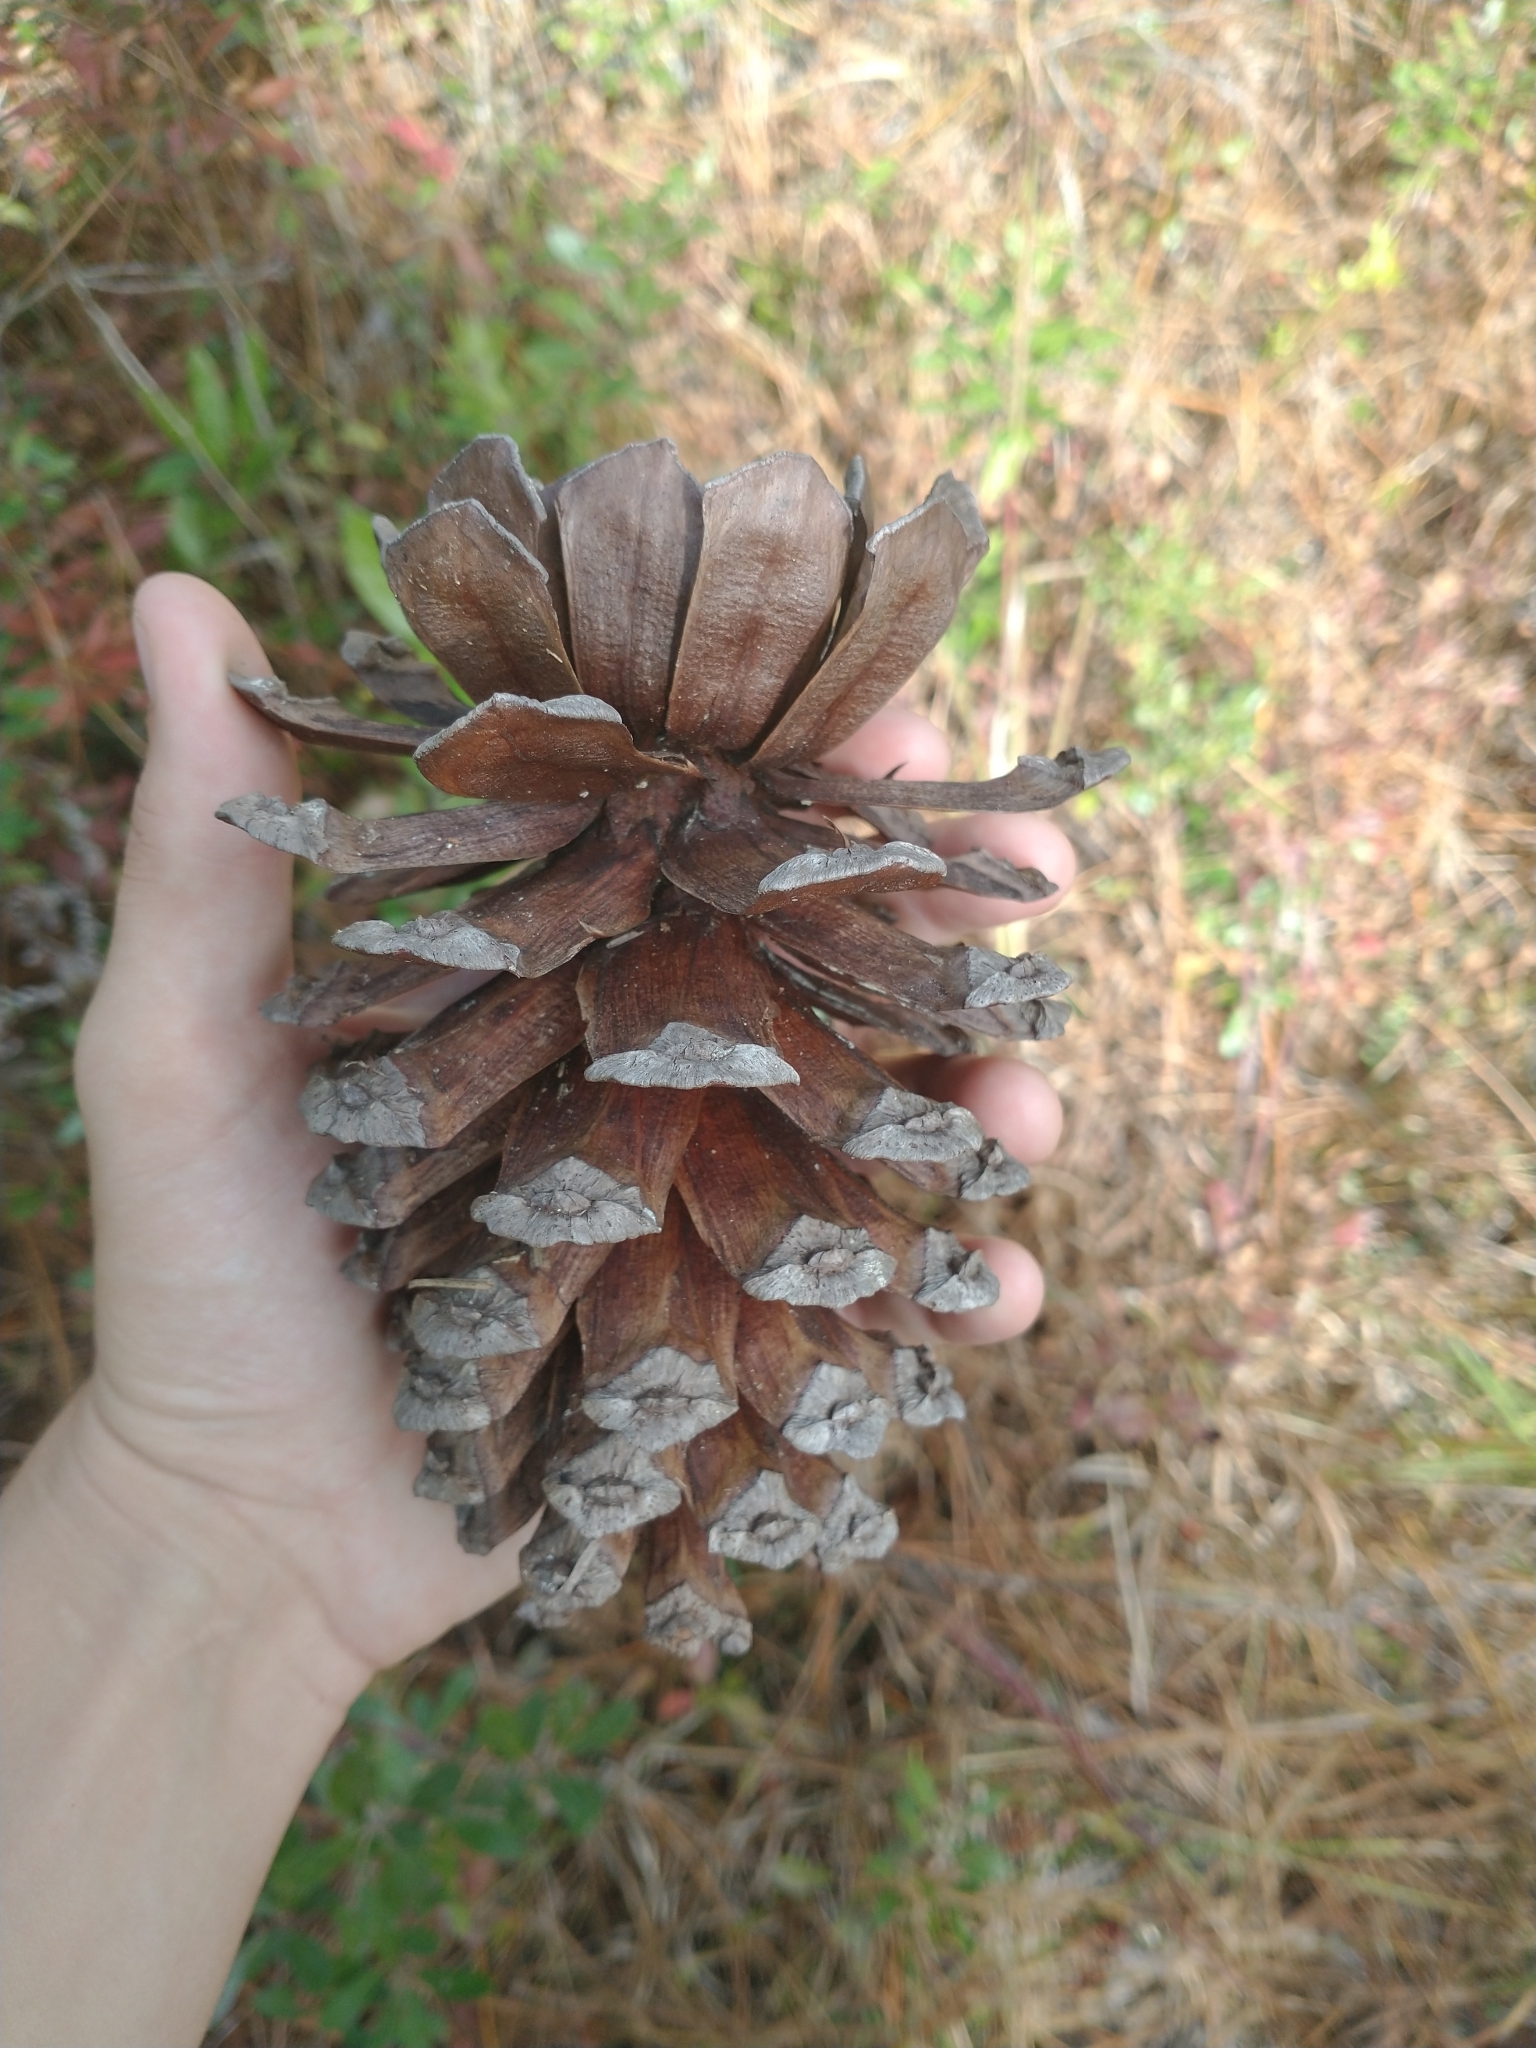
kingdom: Plantae
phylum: Tracheophyta
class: Pinopsida
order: Pinales
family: Pinaceae
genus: Pinus
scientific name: Pinus palustris
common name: Longleaf pine
